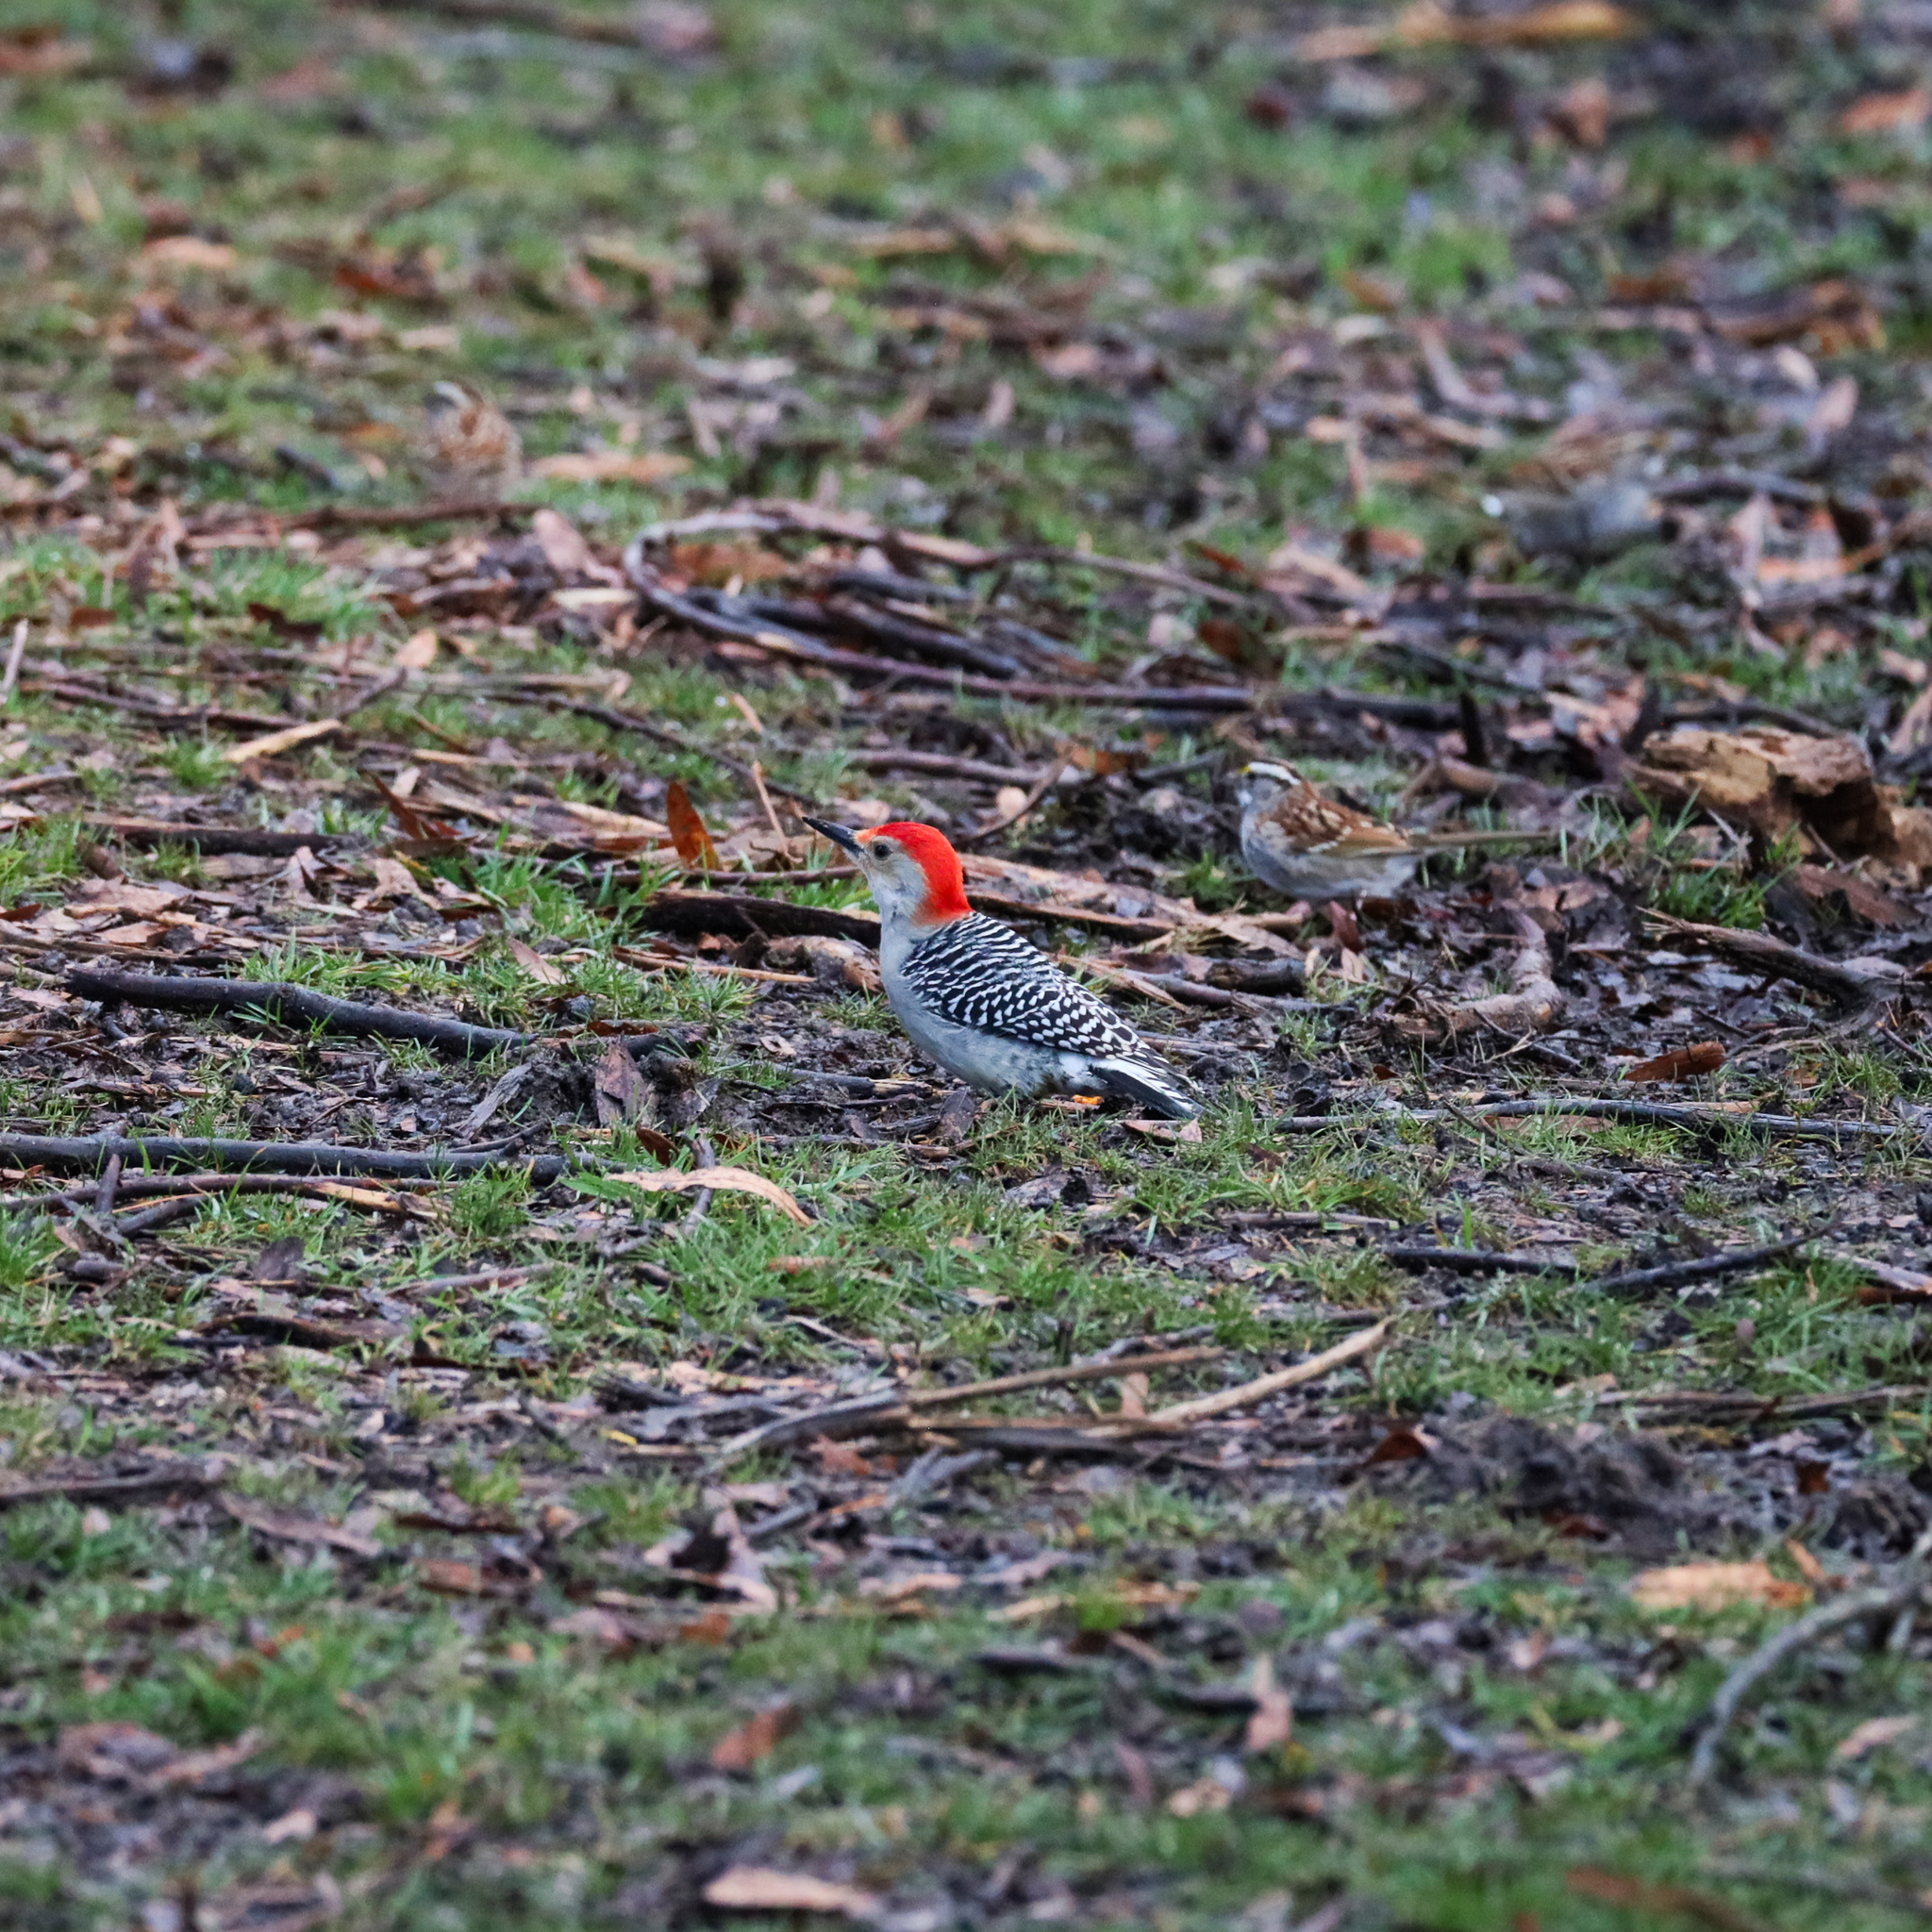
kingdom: Animalia
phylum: Chordata
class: Aves
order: Piciformes
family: Picidae
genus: Melanerpes
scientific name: Melanerpes carolinus
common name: Red-bellied woodpecker
